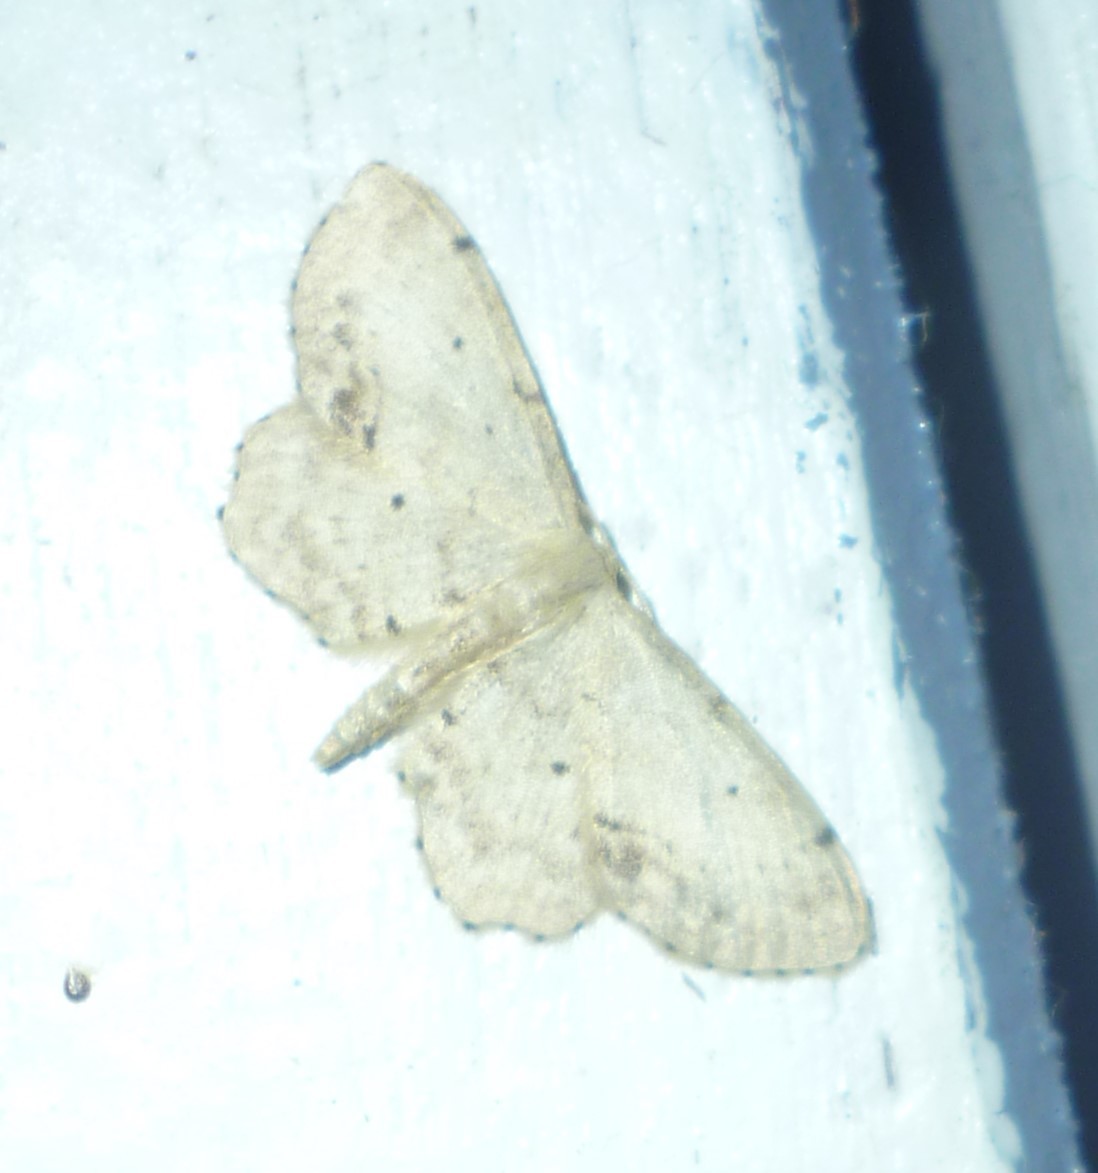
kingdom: Animalia
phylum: Arthropoda
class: Insecta
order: Lepidoptera
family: Geometridae
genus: Idaea
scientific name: Idaea dimidiata
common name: Single-dotted wave
